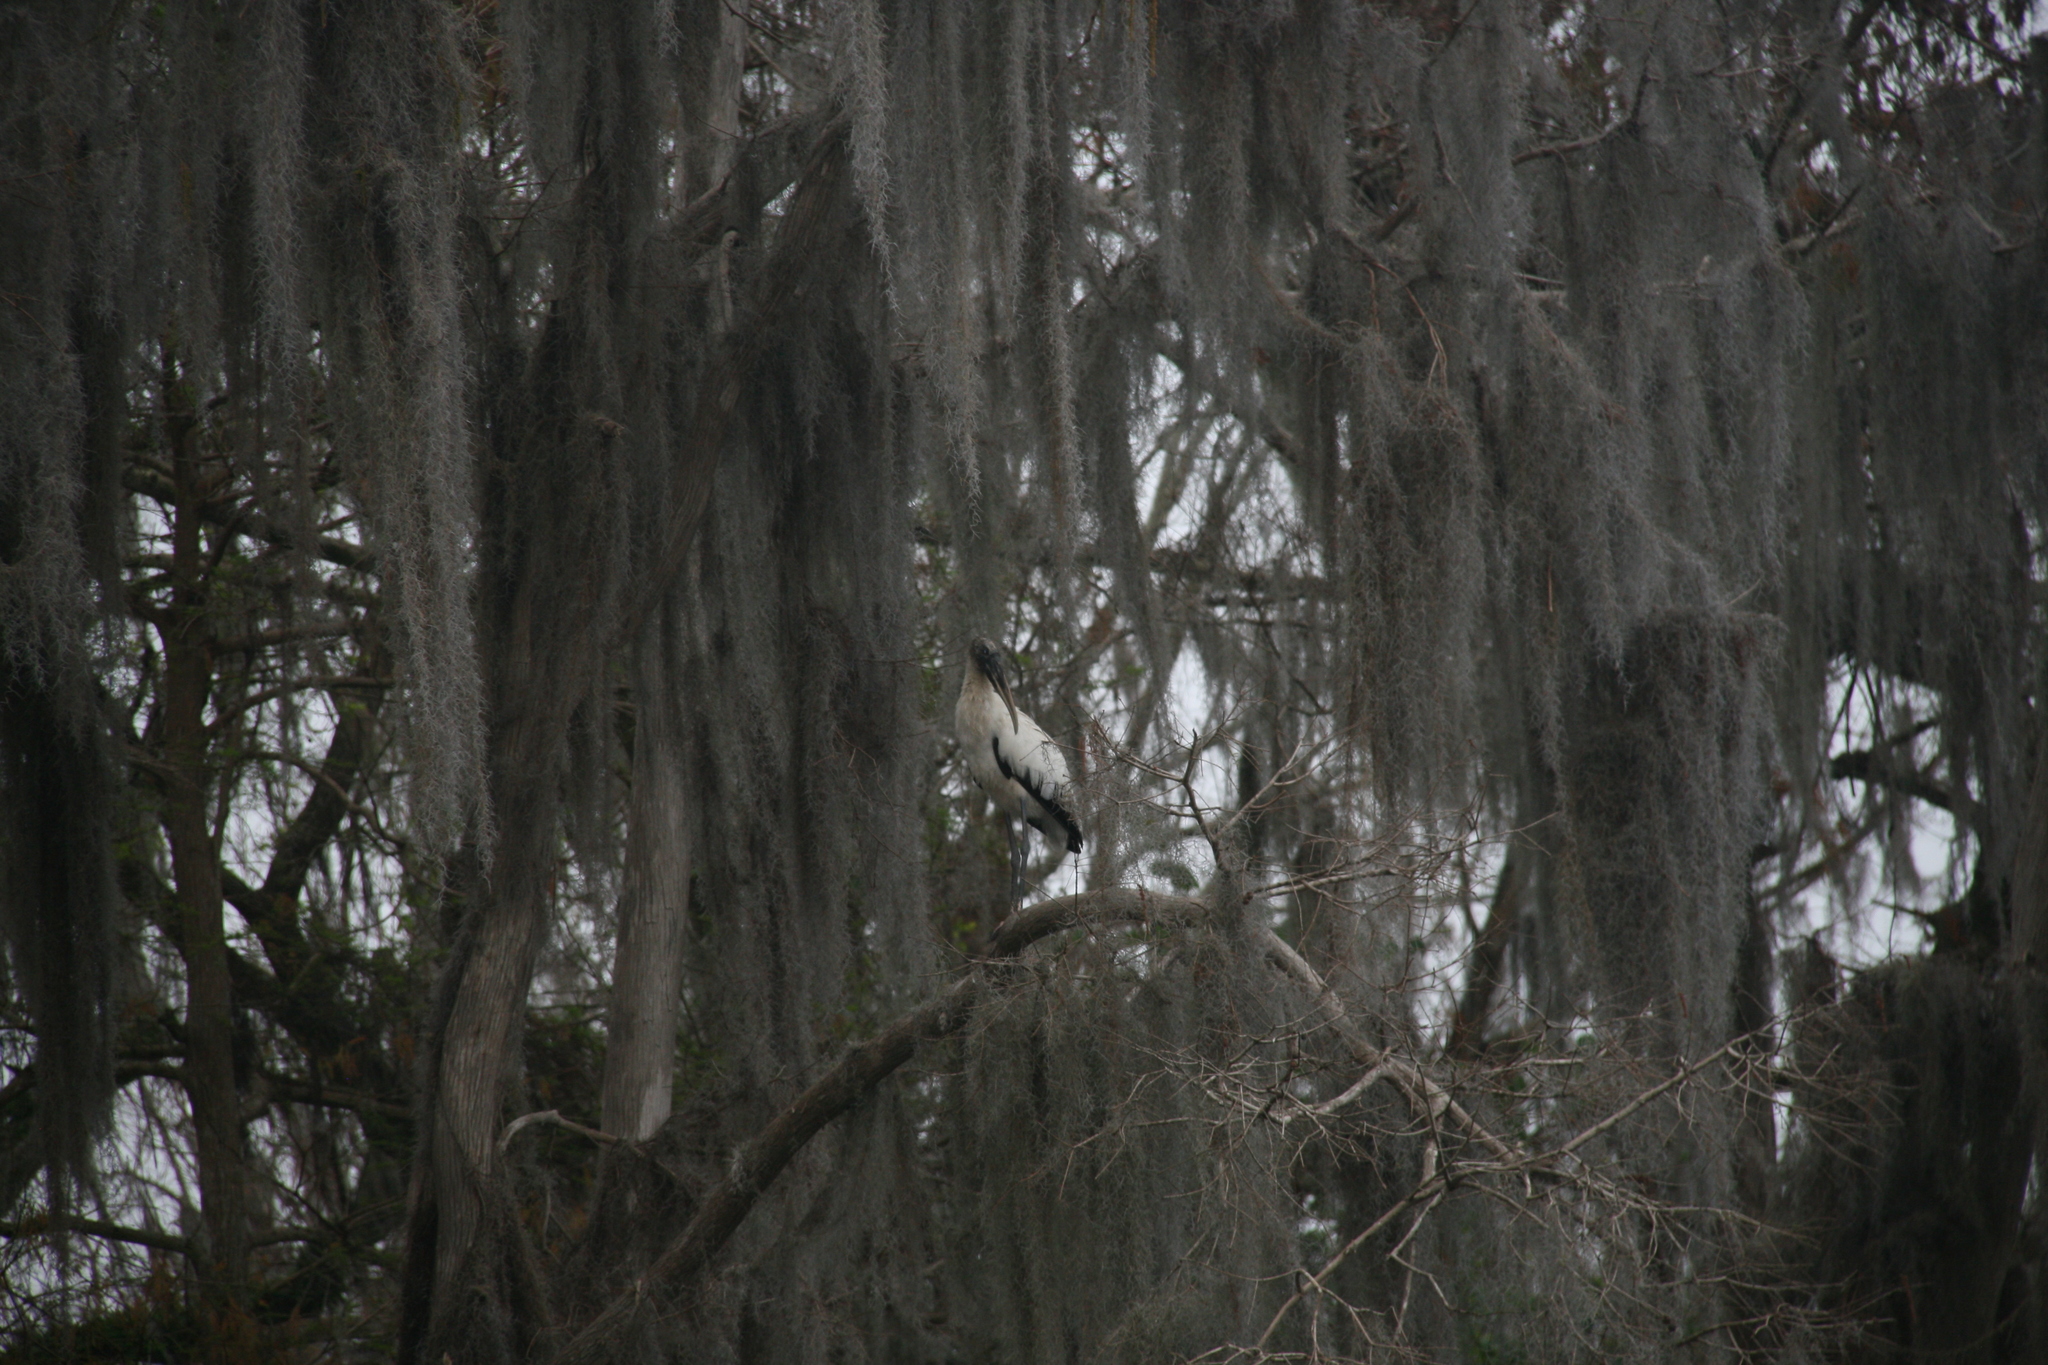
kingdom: Animalia
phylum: Chordata
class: Aves
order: Ciconiiformes
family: Ciconiidae
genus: Mycteria
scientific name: Mycteria americana
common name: Wood stork
